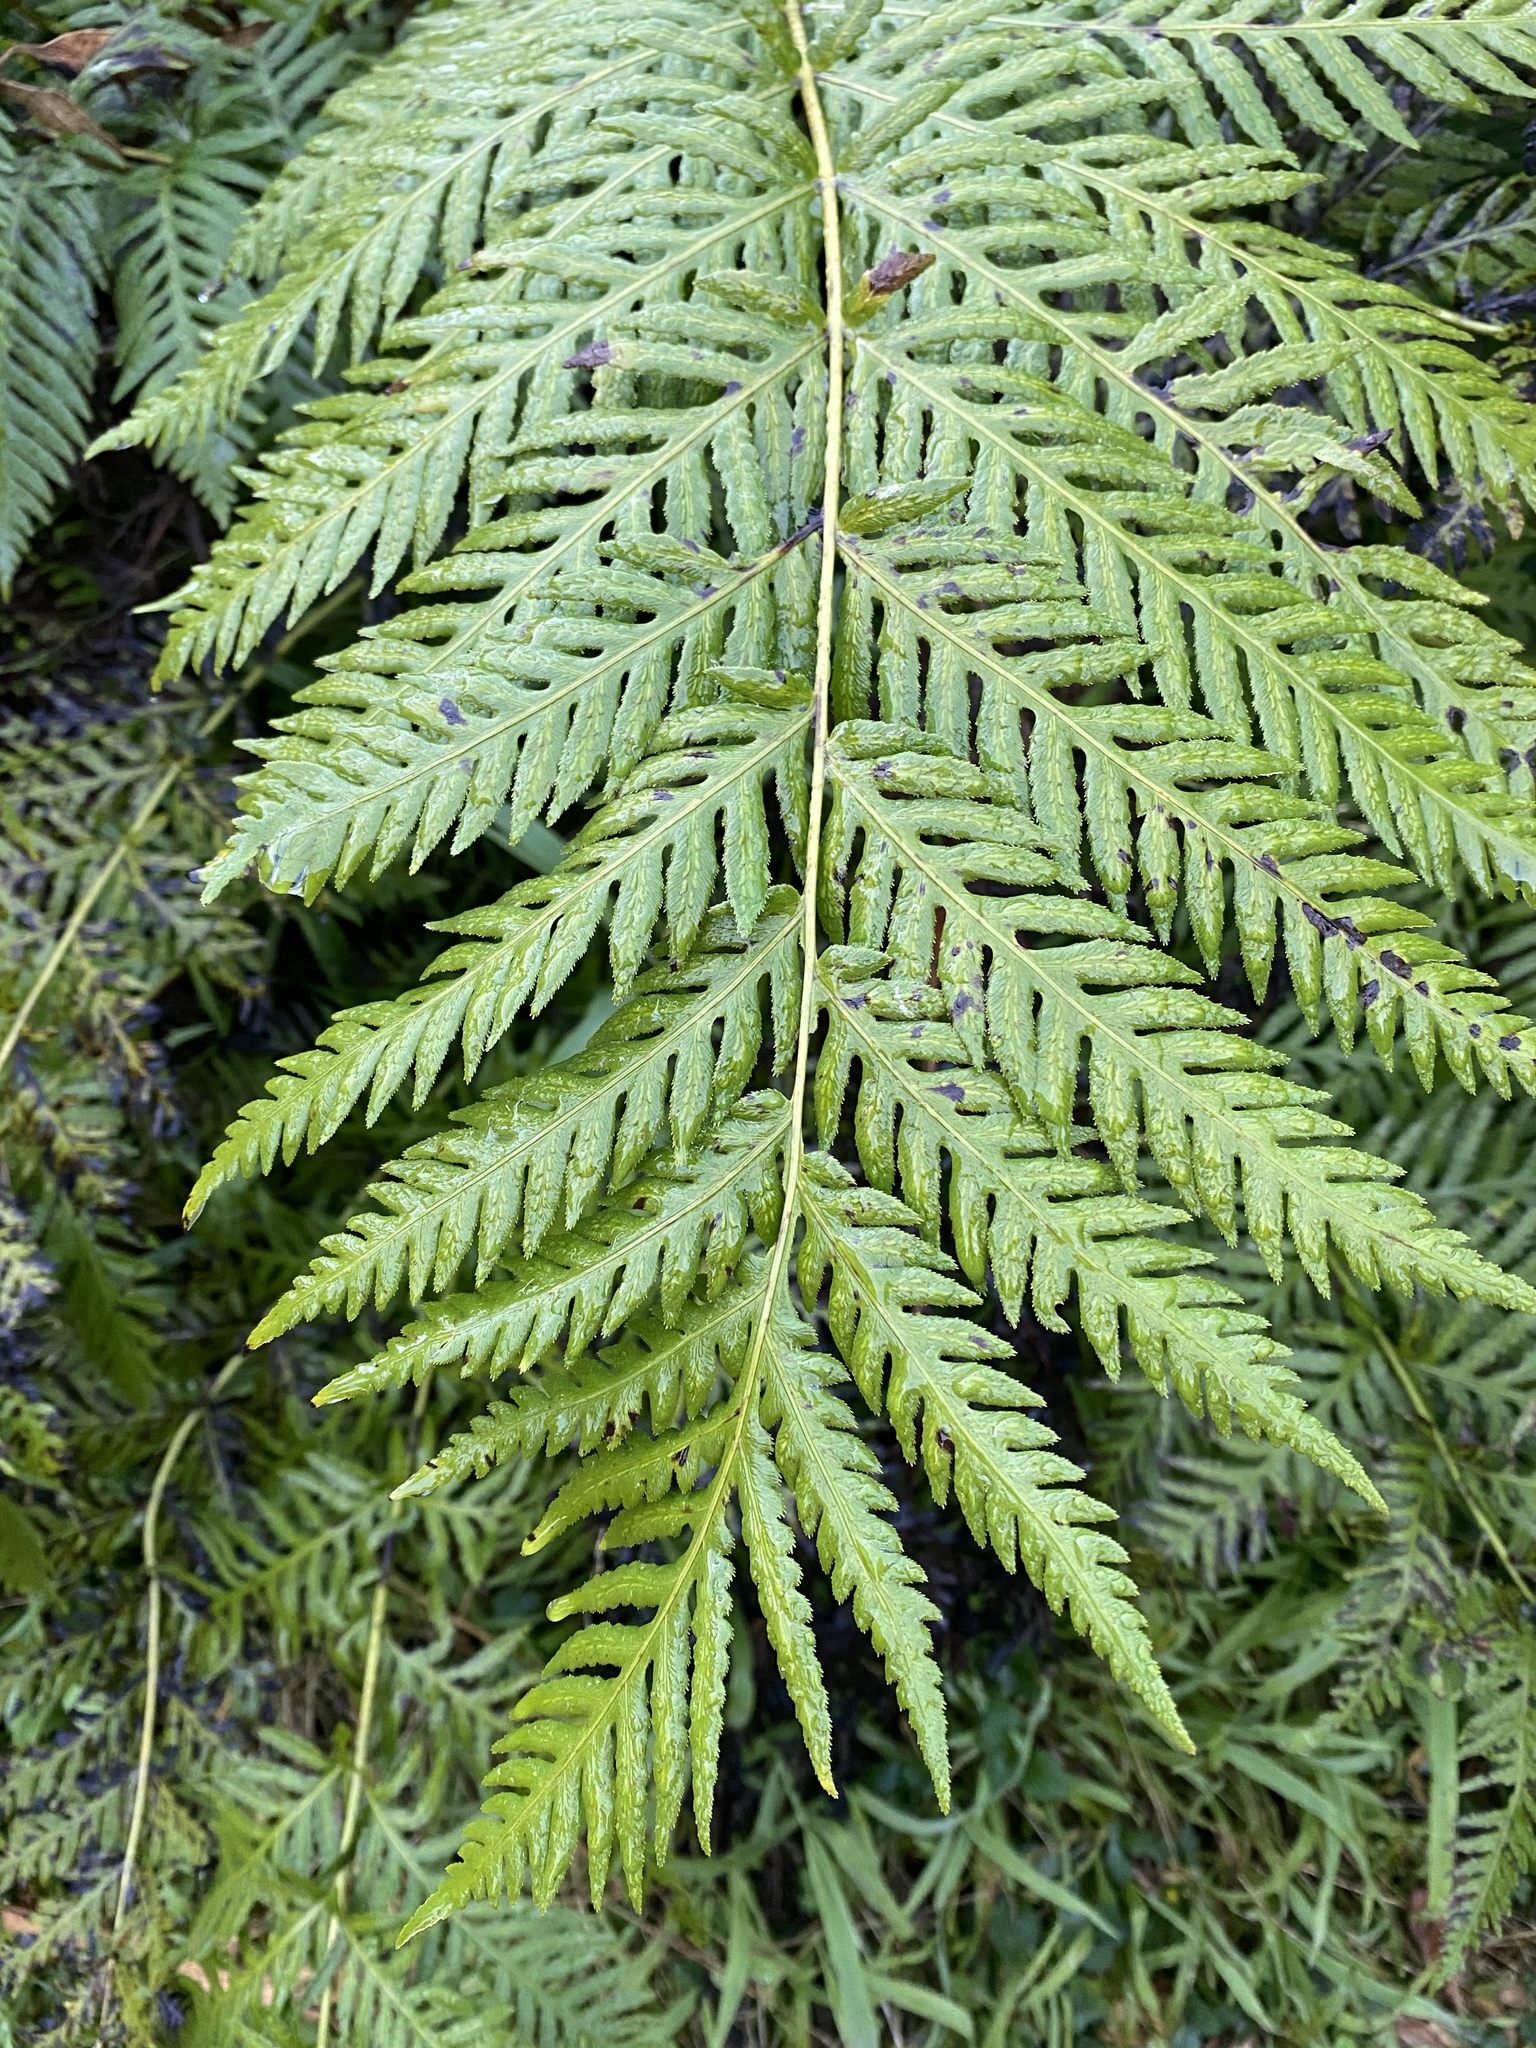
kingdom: Plantae
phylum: Tracheophyta
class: Polypodiopsida
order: Polypodiales
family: Blechnaceae
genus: Woodwardia
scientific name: Woodwardia fimbriata
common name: Giant chain fern
